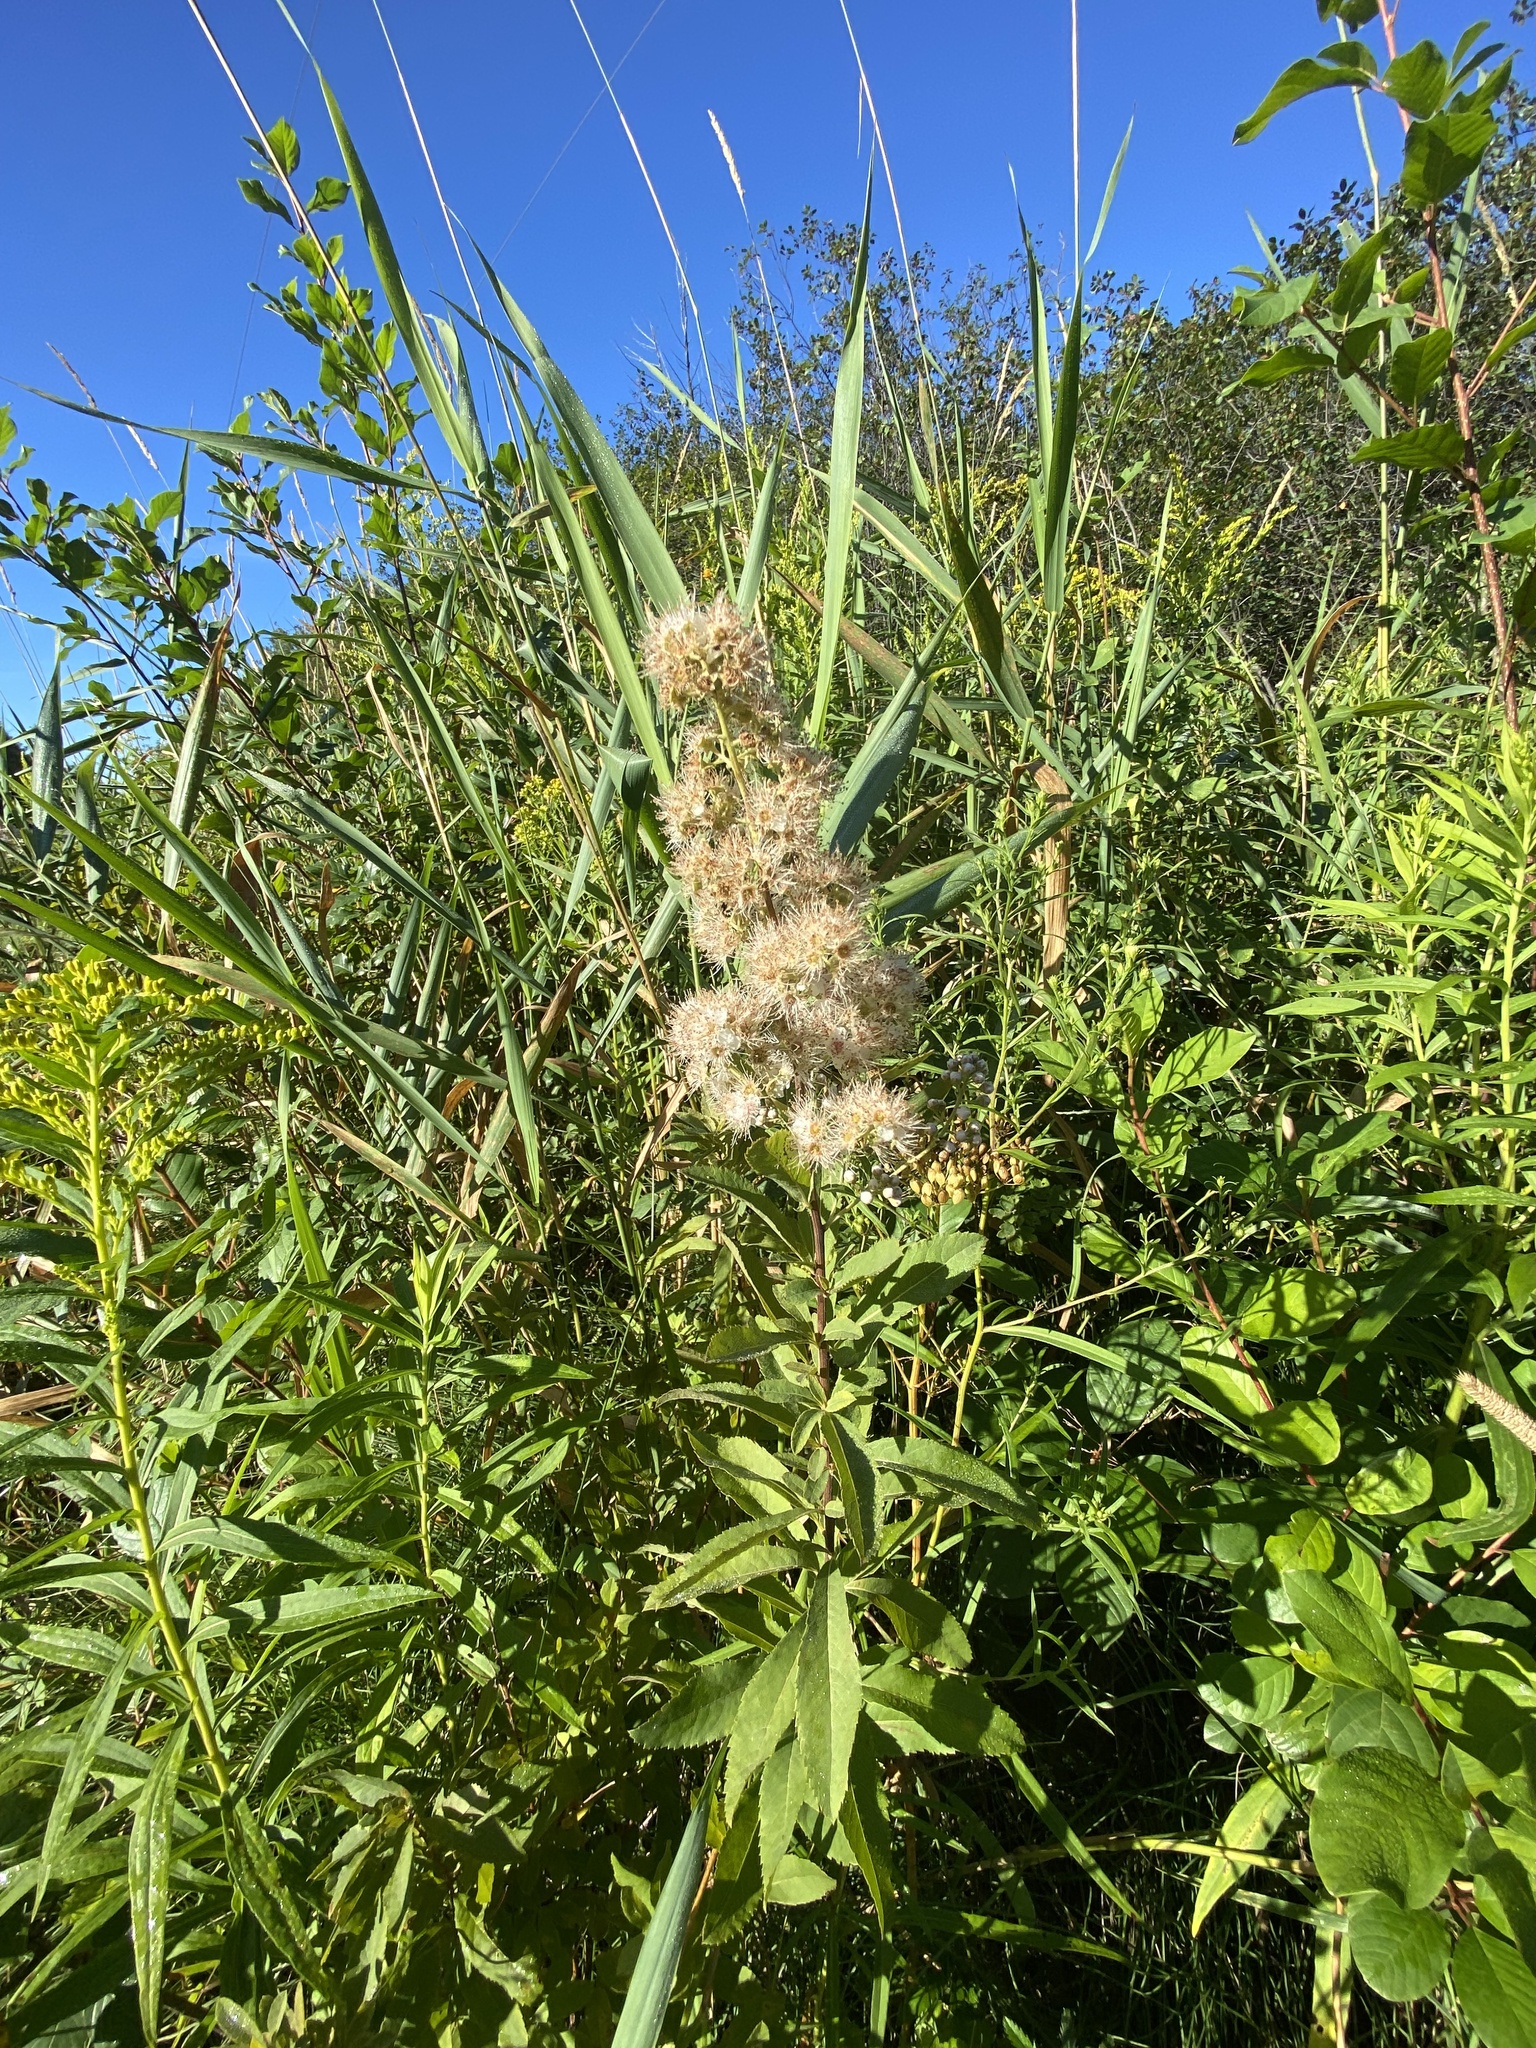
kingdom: Plantae
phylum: Tracheophyta
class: Magnoliopsida
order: Rosales
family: Rosaceae
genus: Spiraea
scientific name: Spiraea alba
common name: Pale bridewort
